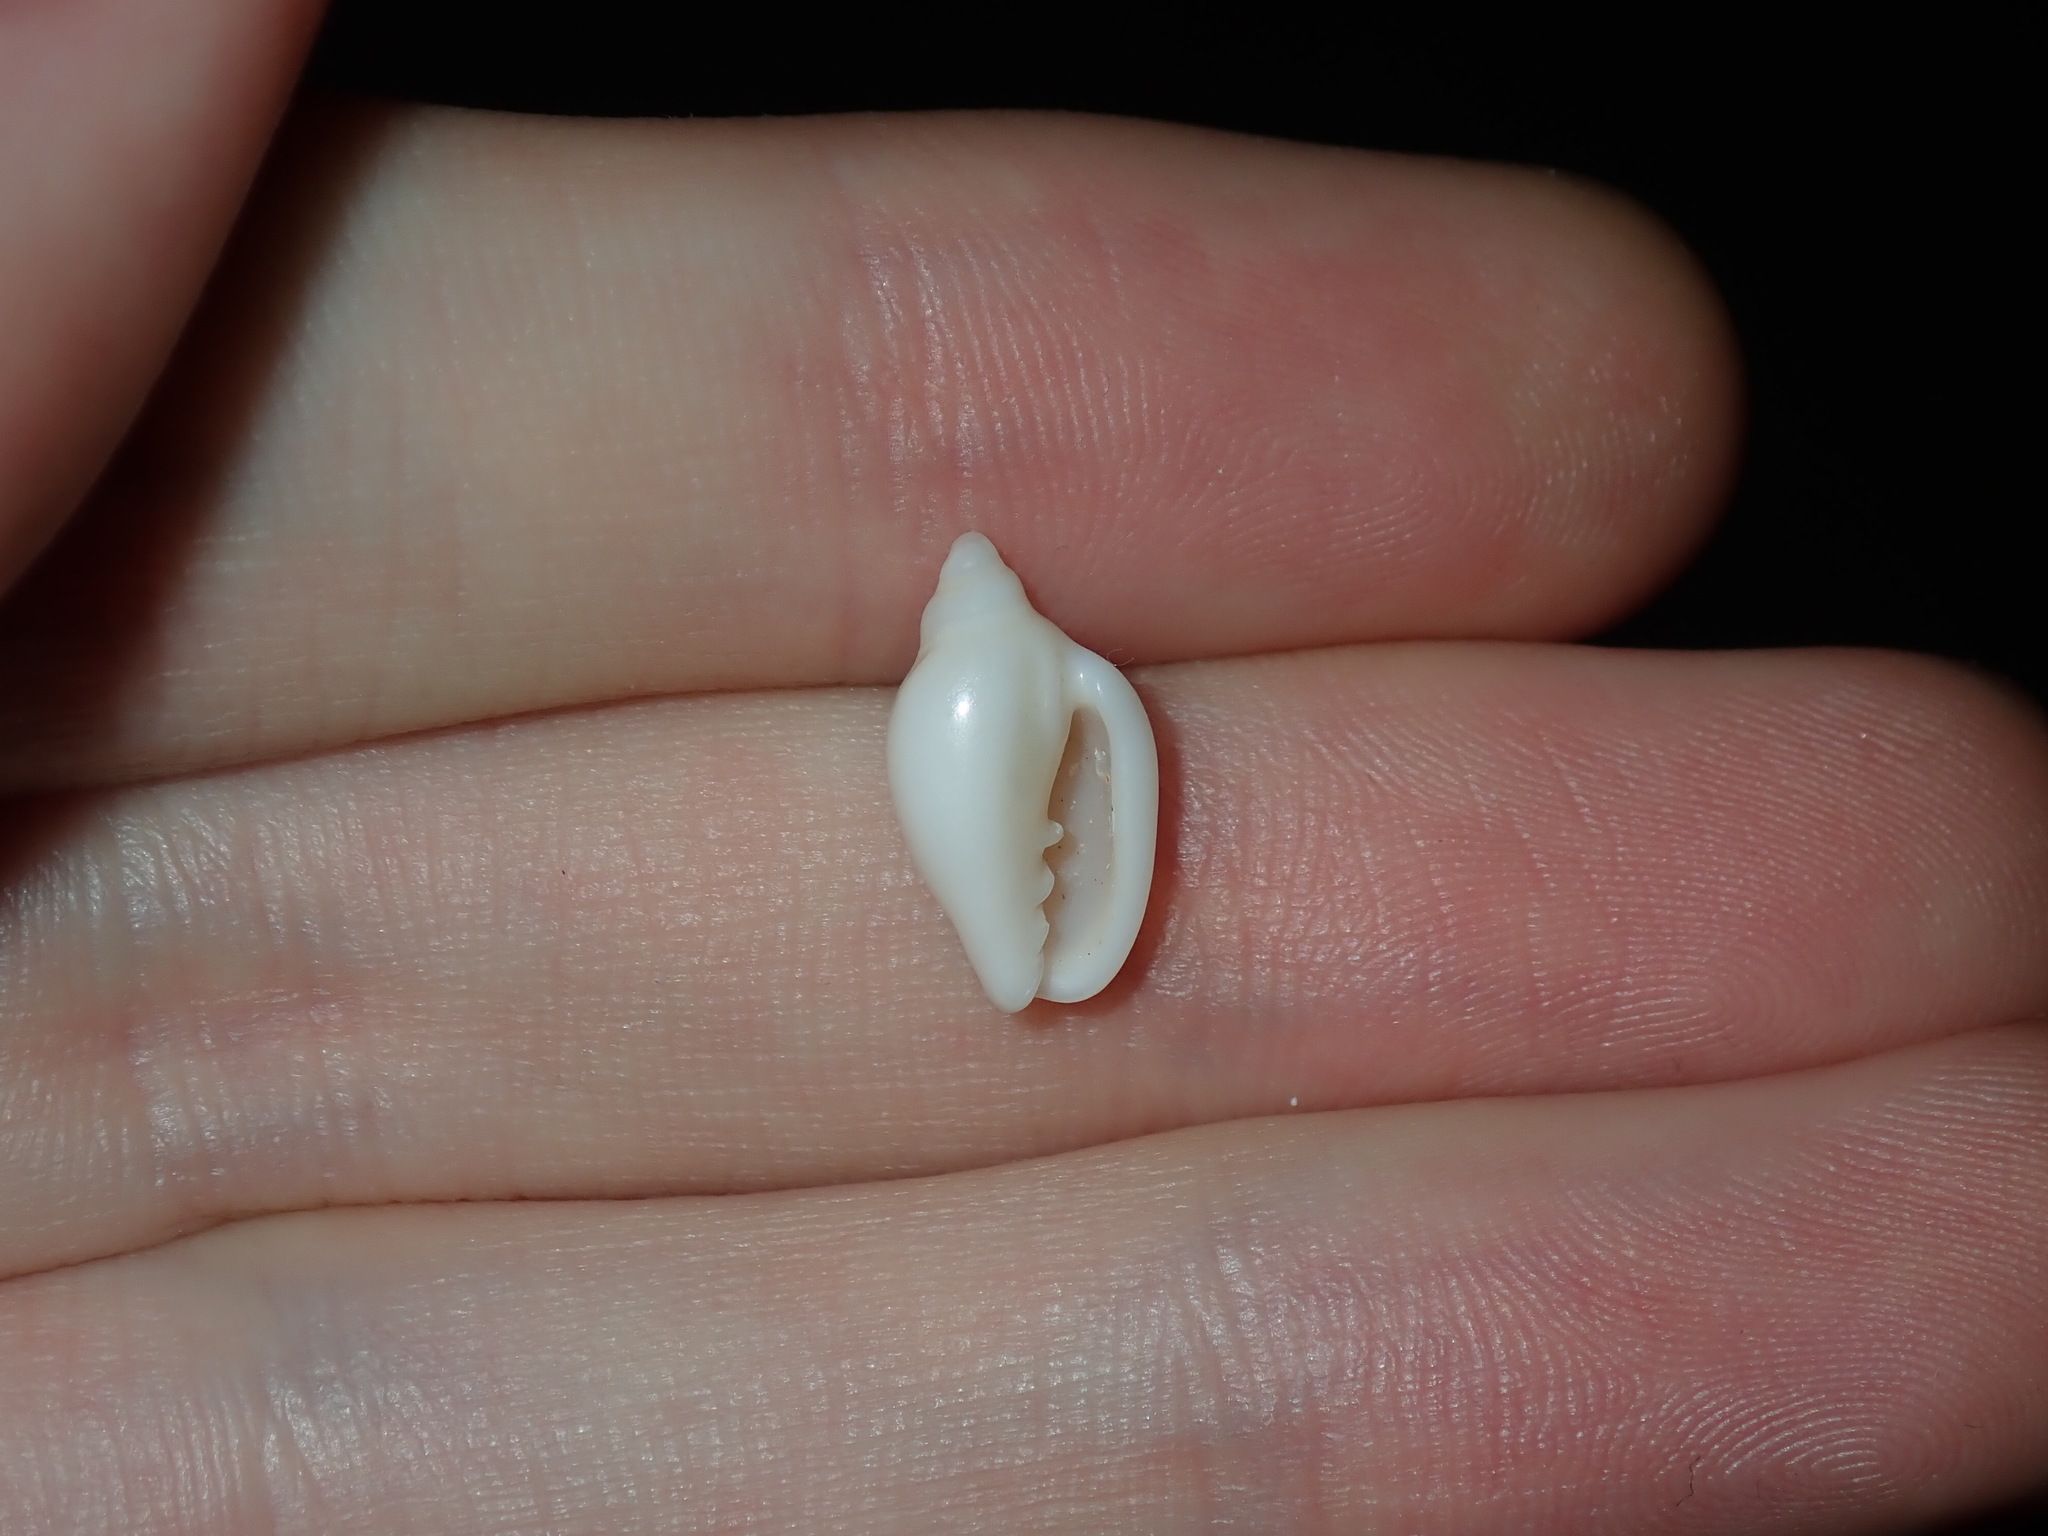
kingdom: Animalia
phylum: Mollusca
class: Gastropoda
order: Neogastropoda
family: Marginellidae
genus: Austroginella
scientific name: Austroginella muscaria
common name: Fly marginella
